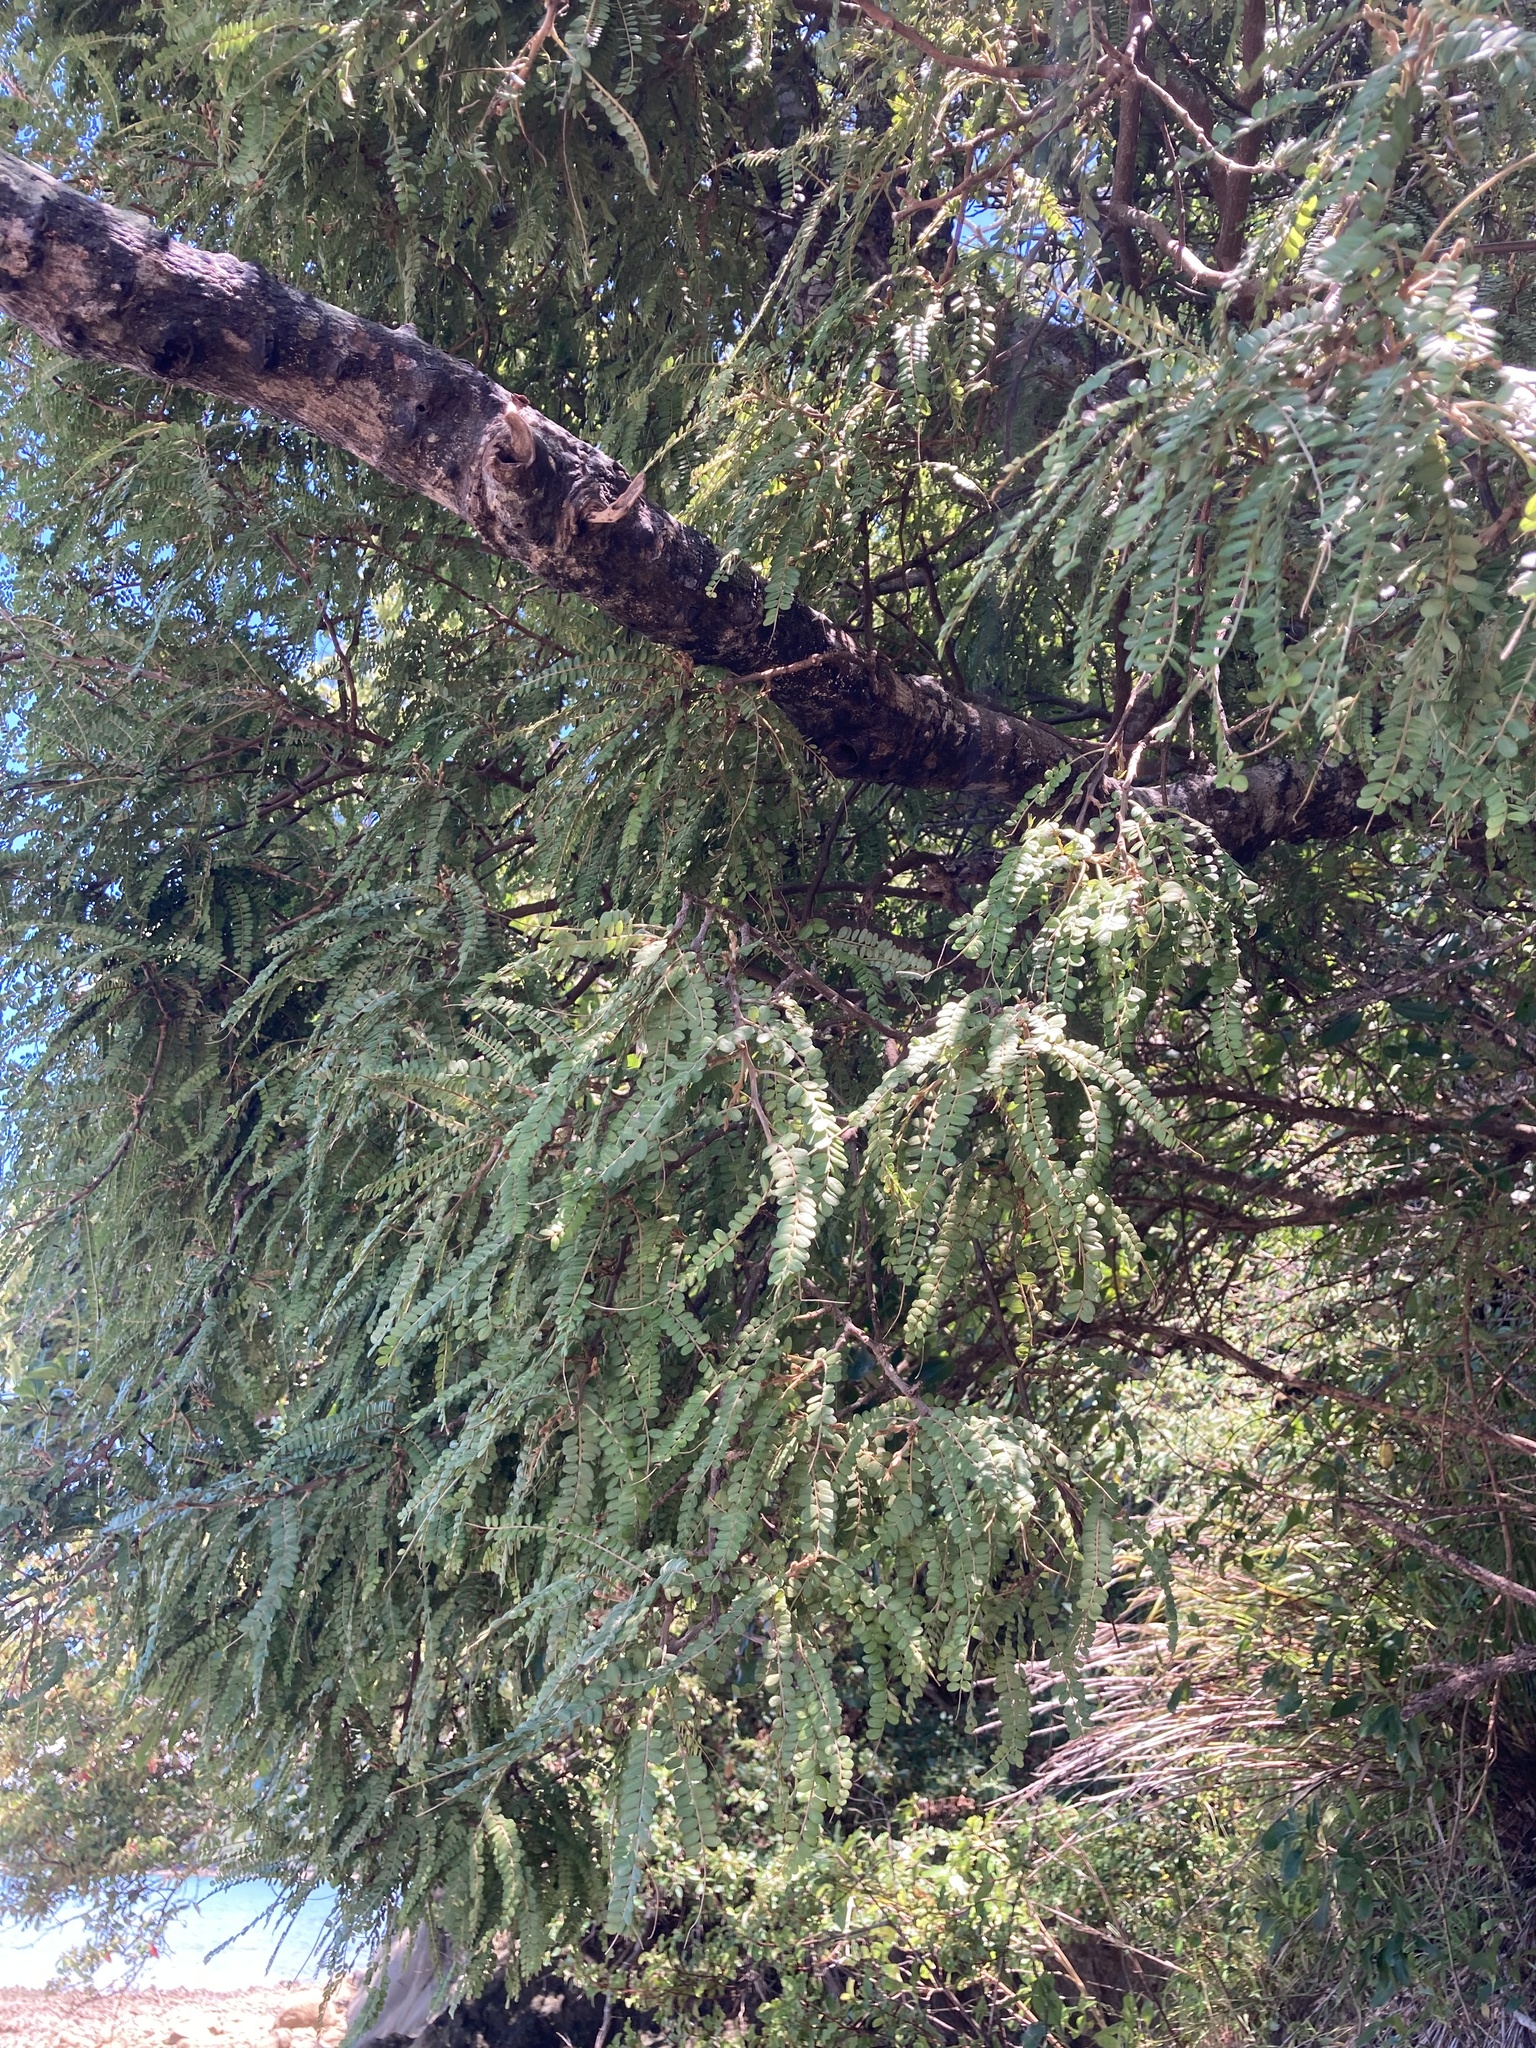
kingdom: Plantae
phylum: Tracheophyta
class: Magnoliopsida
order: Fabales
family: Fabaceae
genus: Sophora
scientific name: Sophora chathamica
